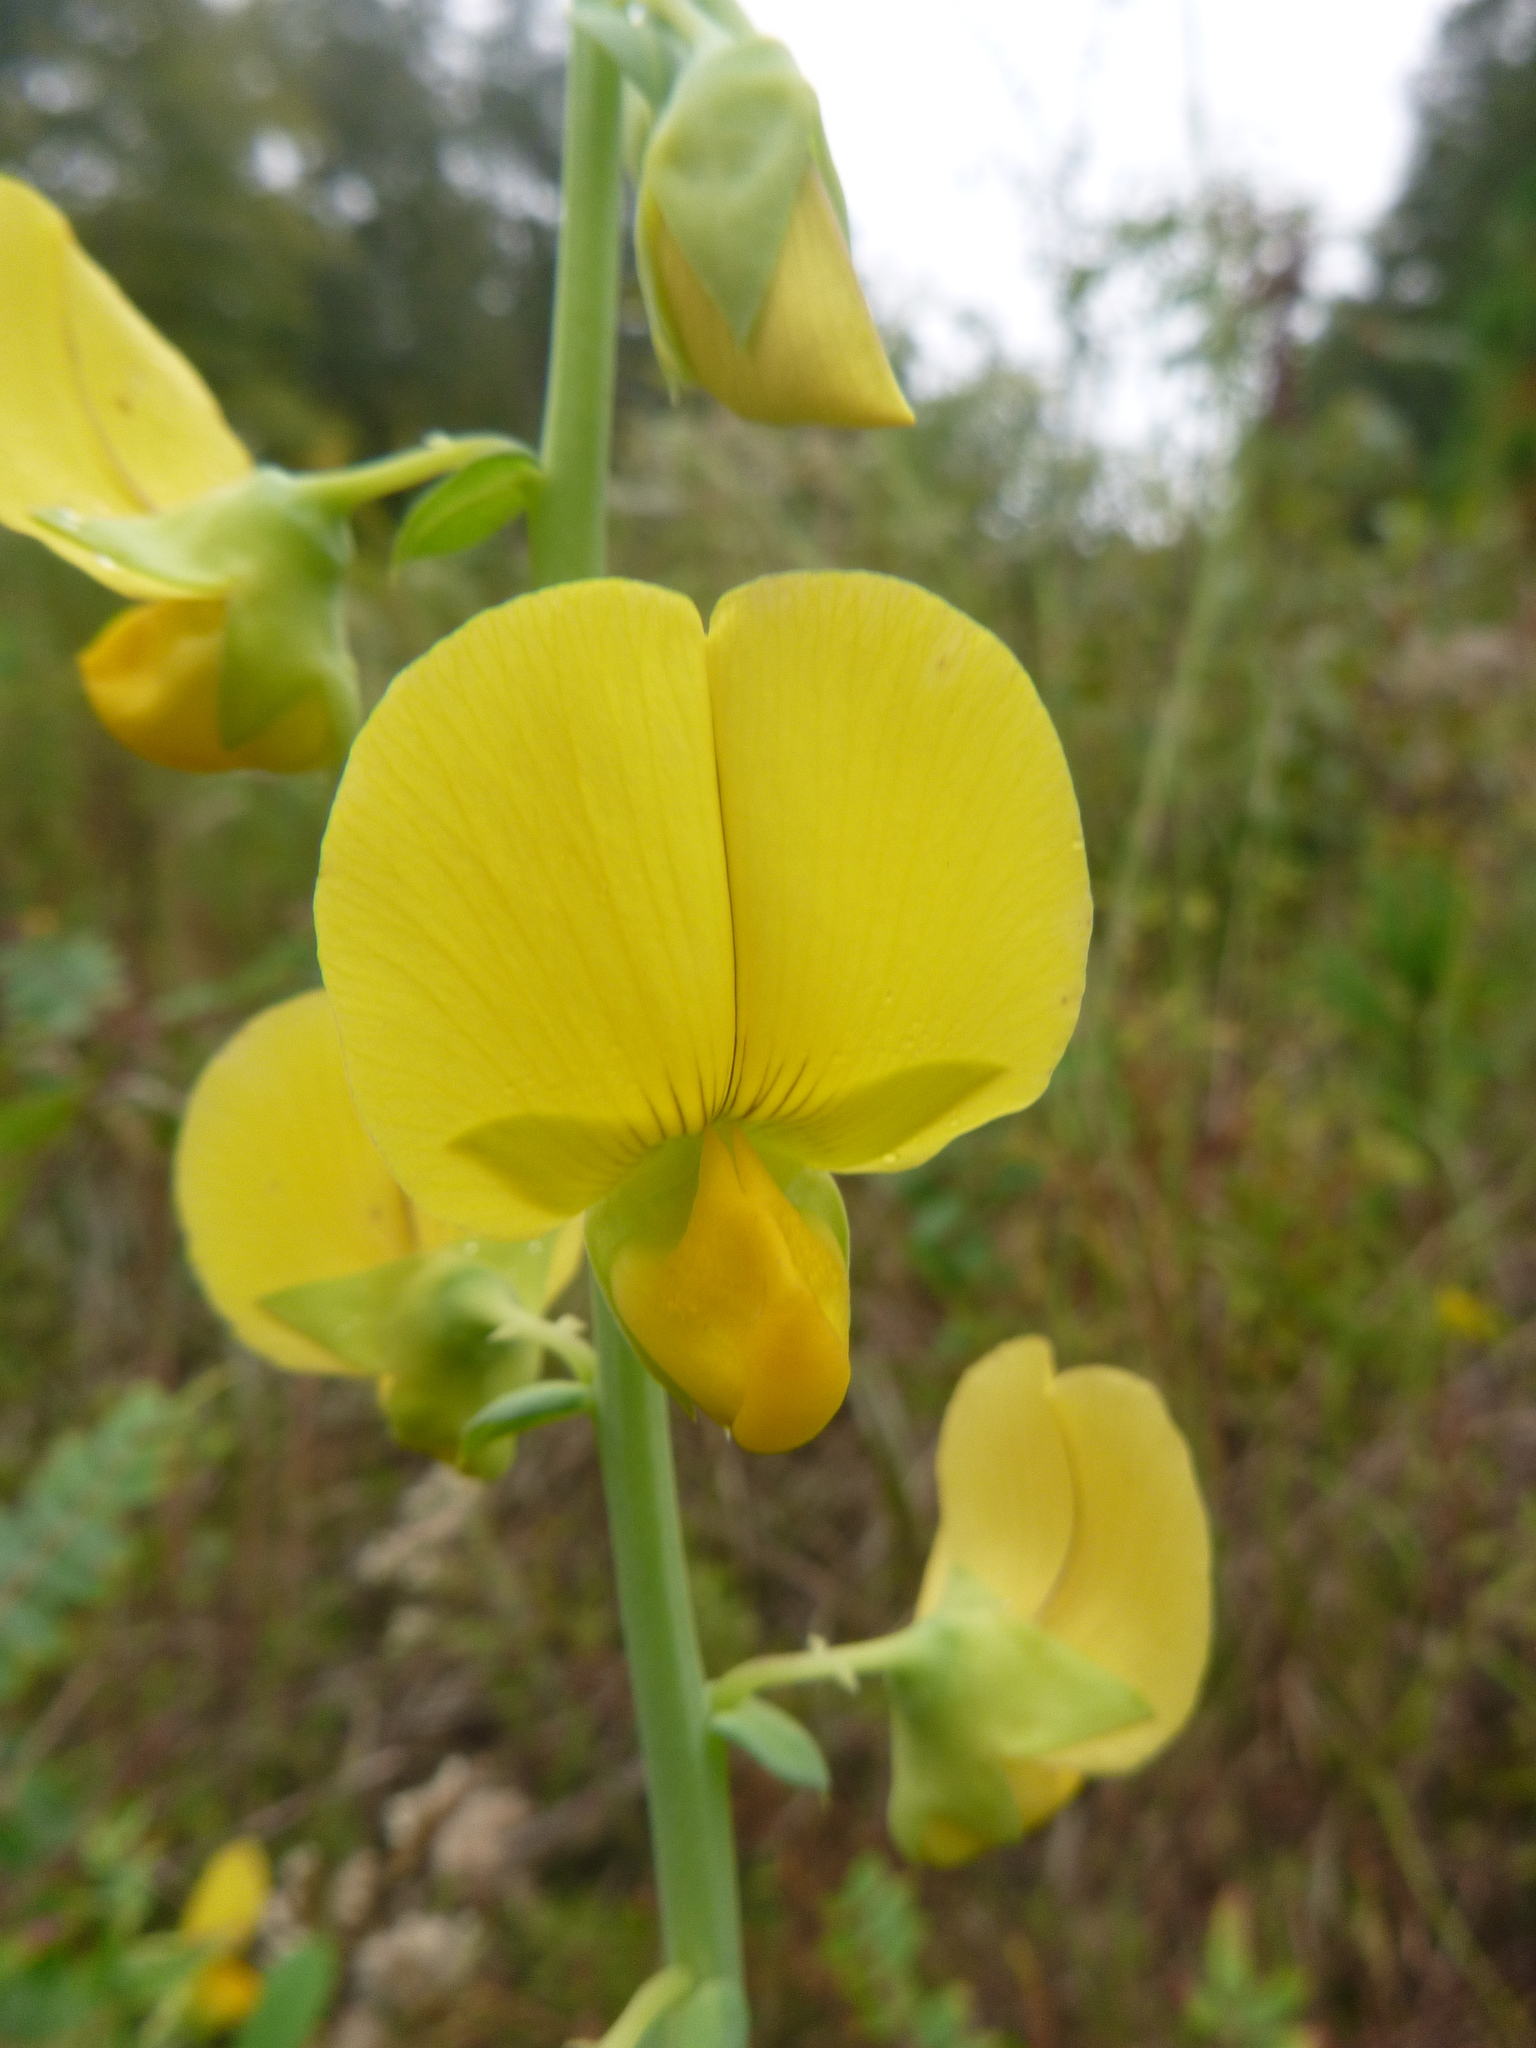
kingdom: Plantae
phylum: Tracheophyta
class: Magnoliopsida
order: Fabales
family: Fabaceae
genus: Crotalaria
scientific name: Crotalaria spectabilis
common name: Showy rattlebox
